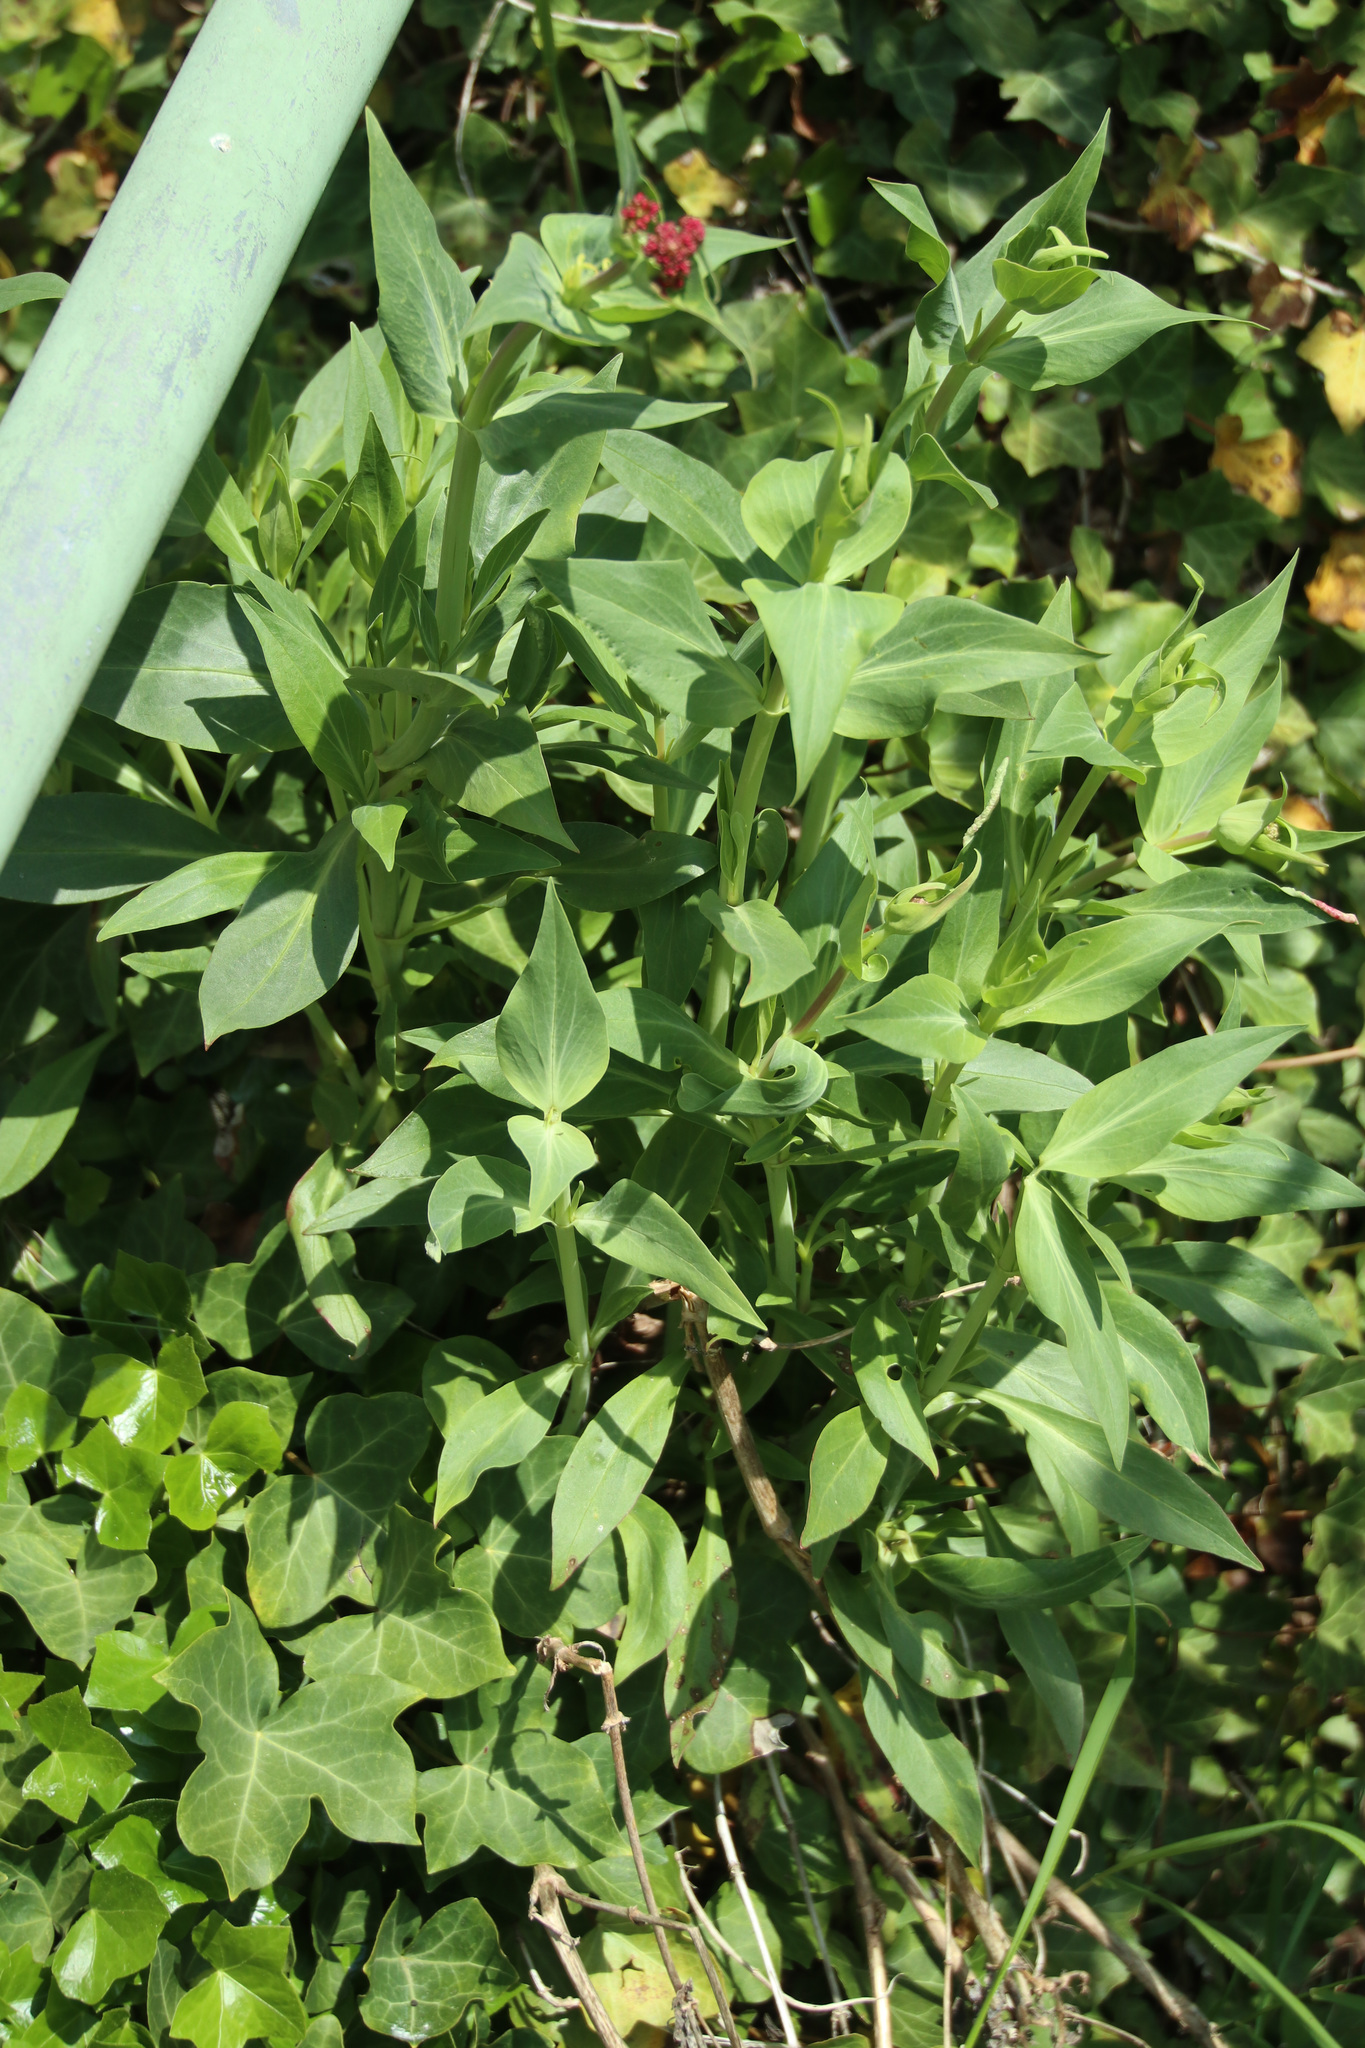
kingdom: Plantae
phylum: Tracheophyta
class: Magnoliopsida
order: Dipsacales
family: Caprifoliaceae
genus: Centranthus
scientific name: Centranthus ruber
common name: Red valerian
